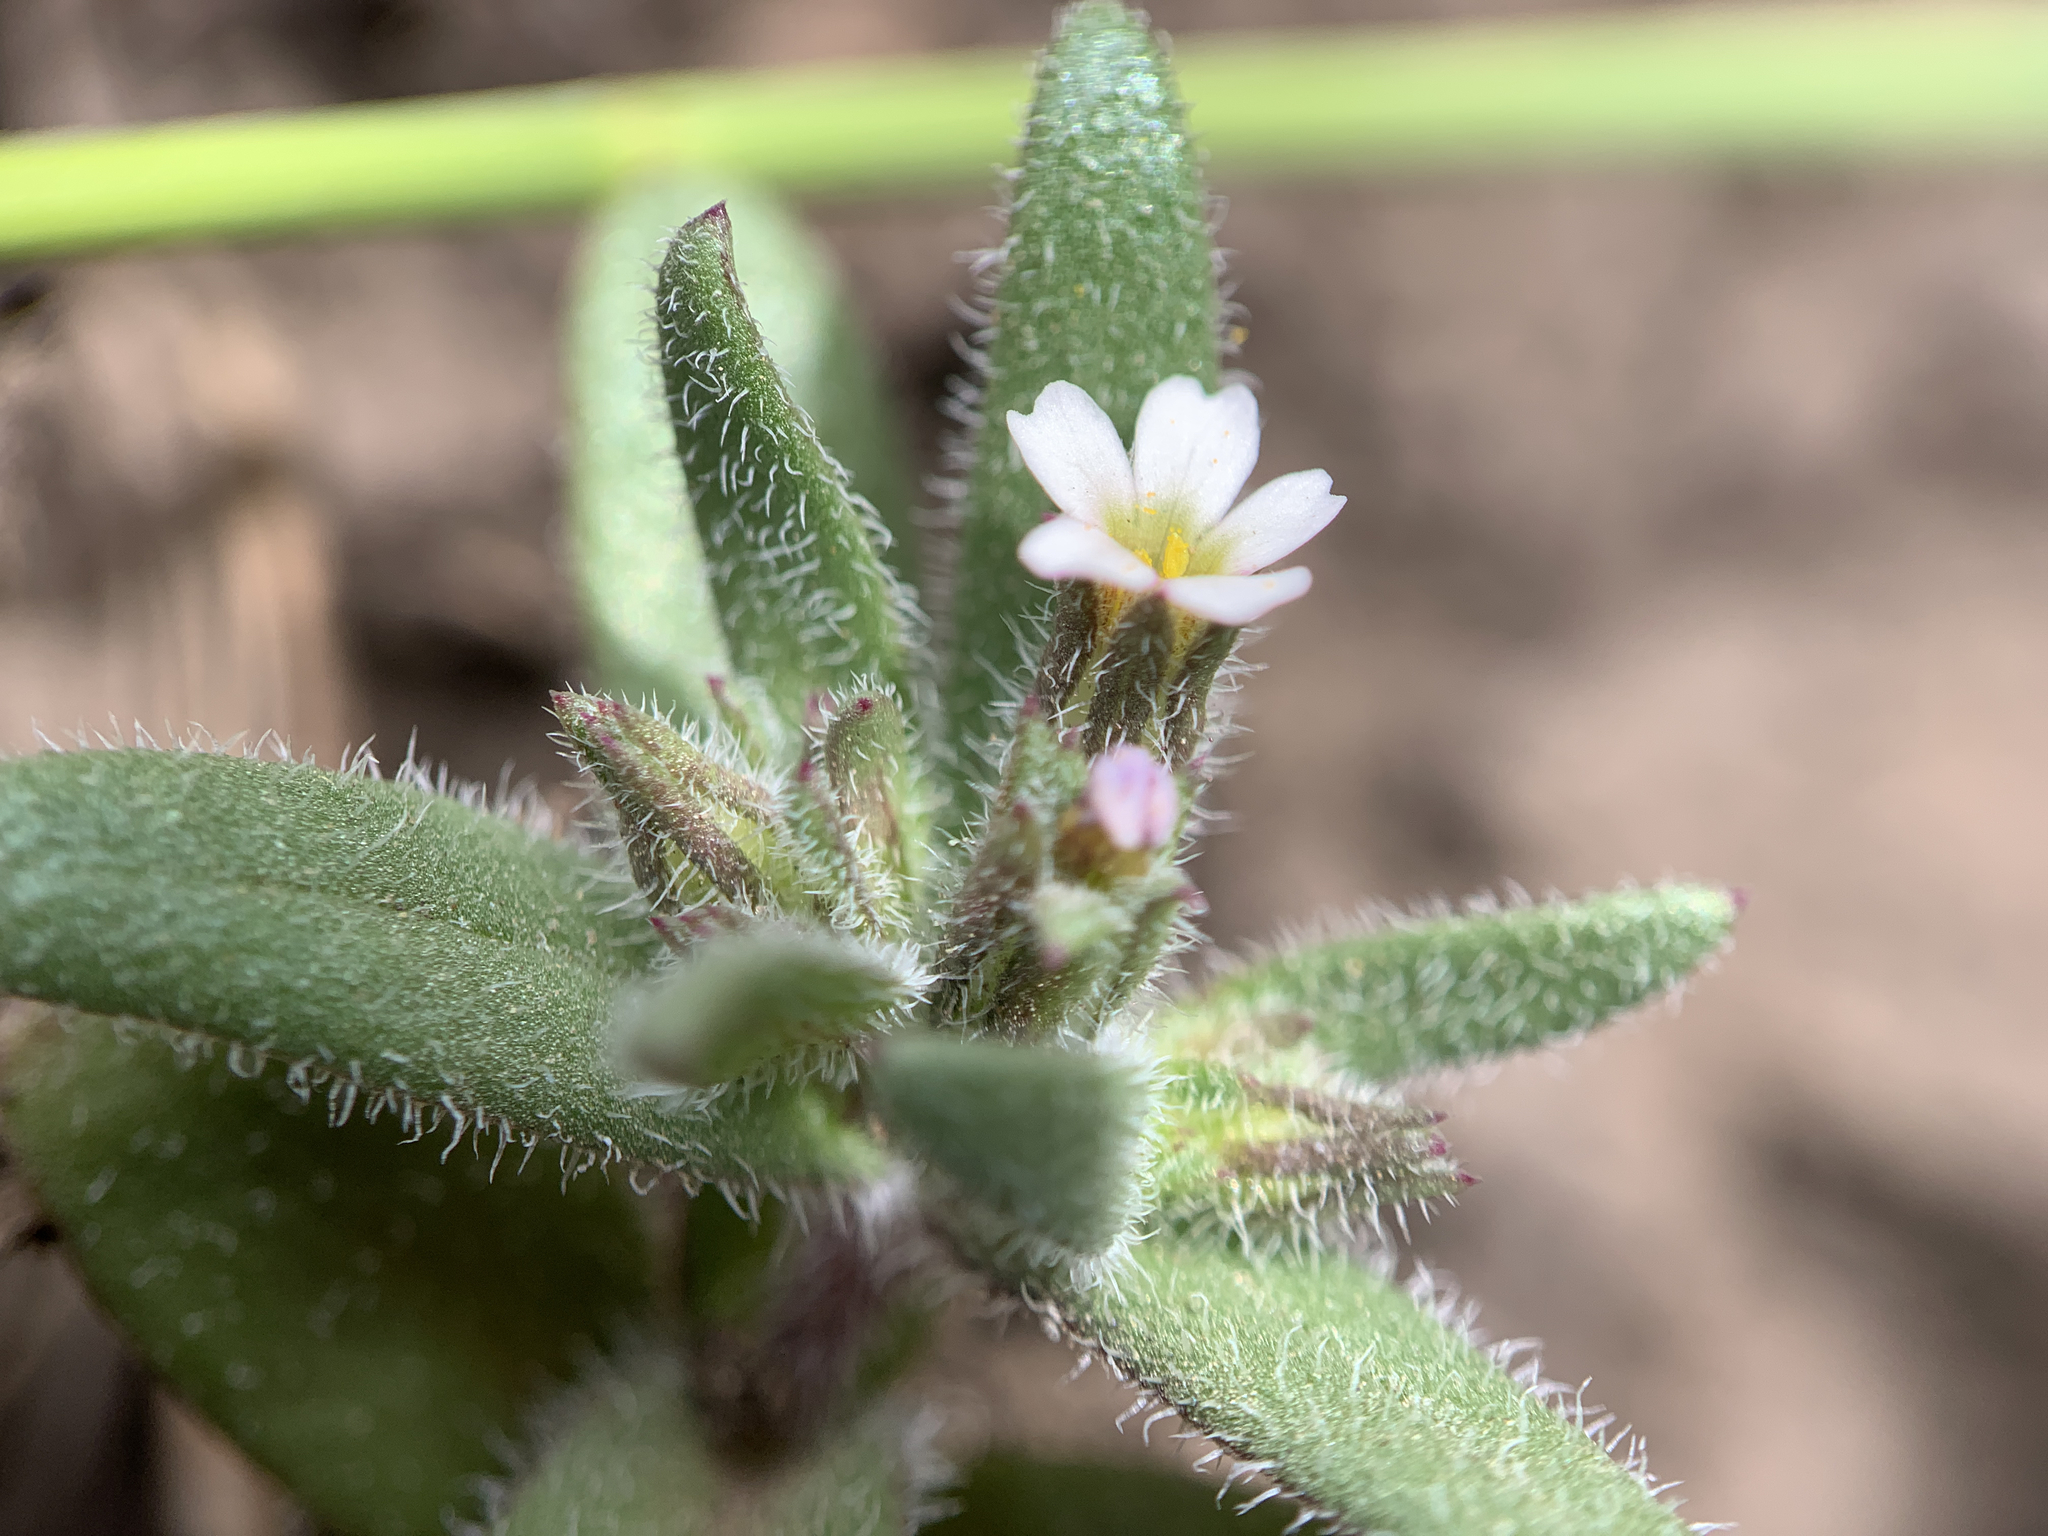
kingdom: Plantae
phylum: Tracheophyta
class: Magnoliopsida
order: Ericales
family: Polemoniaceae
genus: Phlox
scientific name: Phlox gracilis
